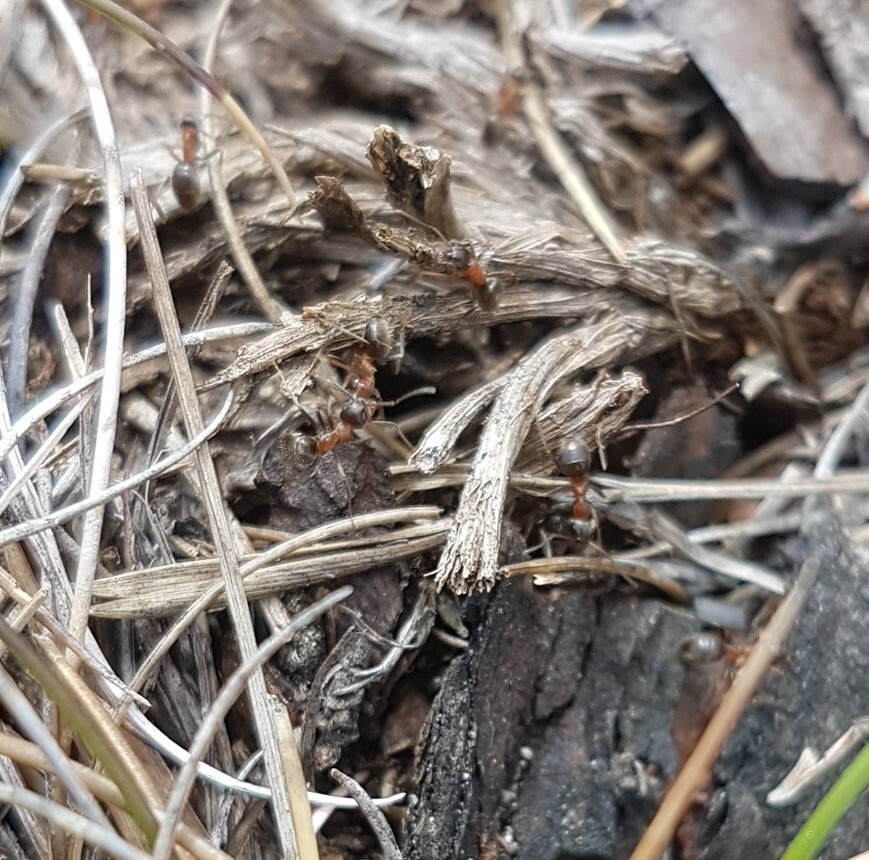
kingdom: Animalia
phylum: Arthropoda
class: Insecta
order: Hymenoptera
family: Formicidae
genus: Lasius
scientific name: Lasius emarginatus
